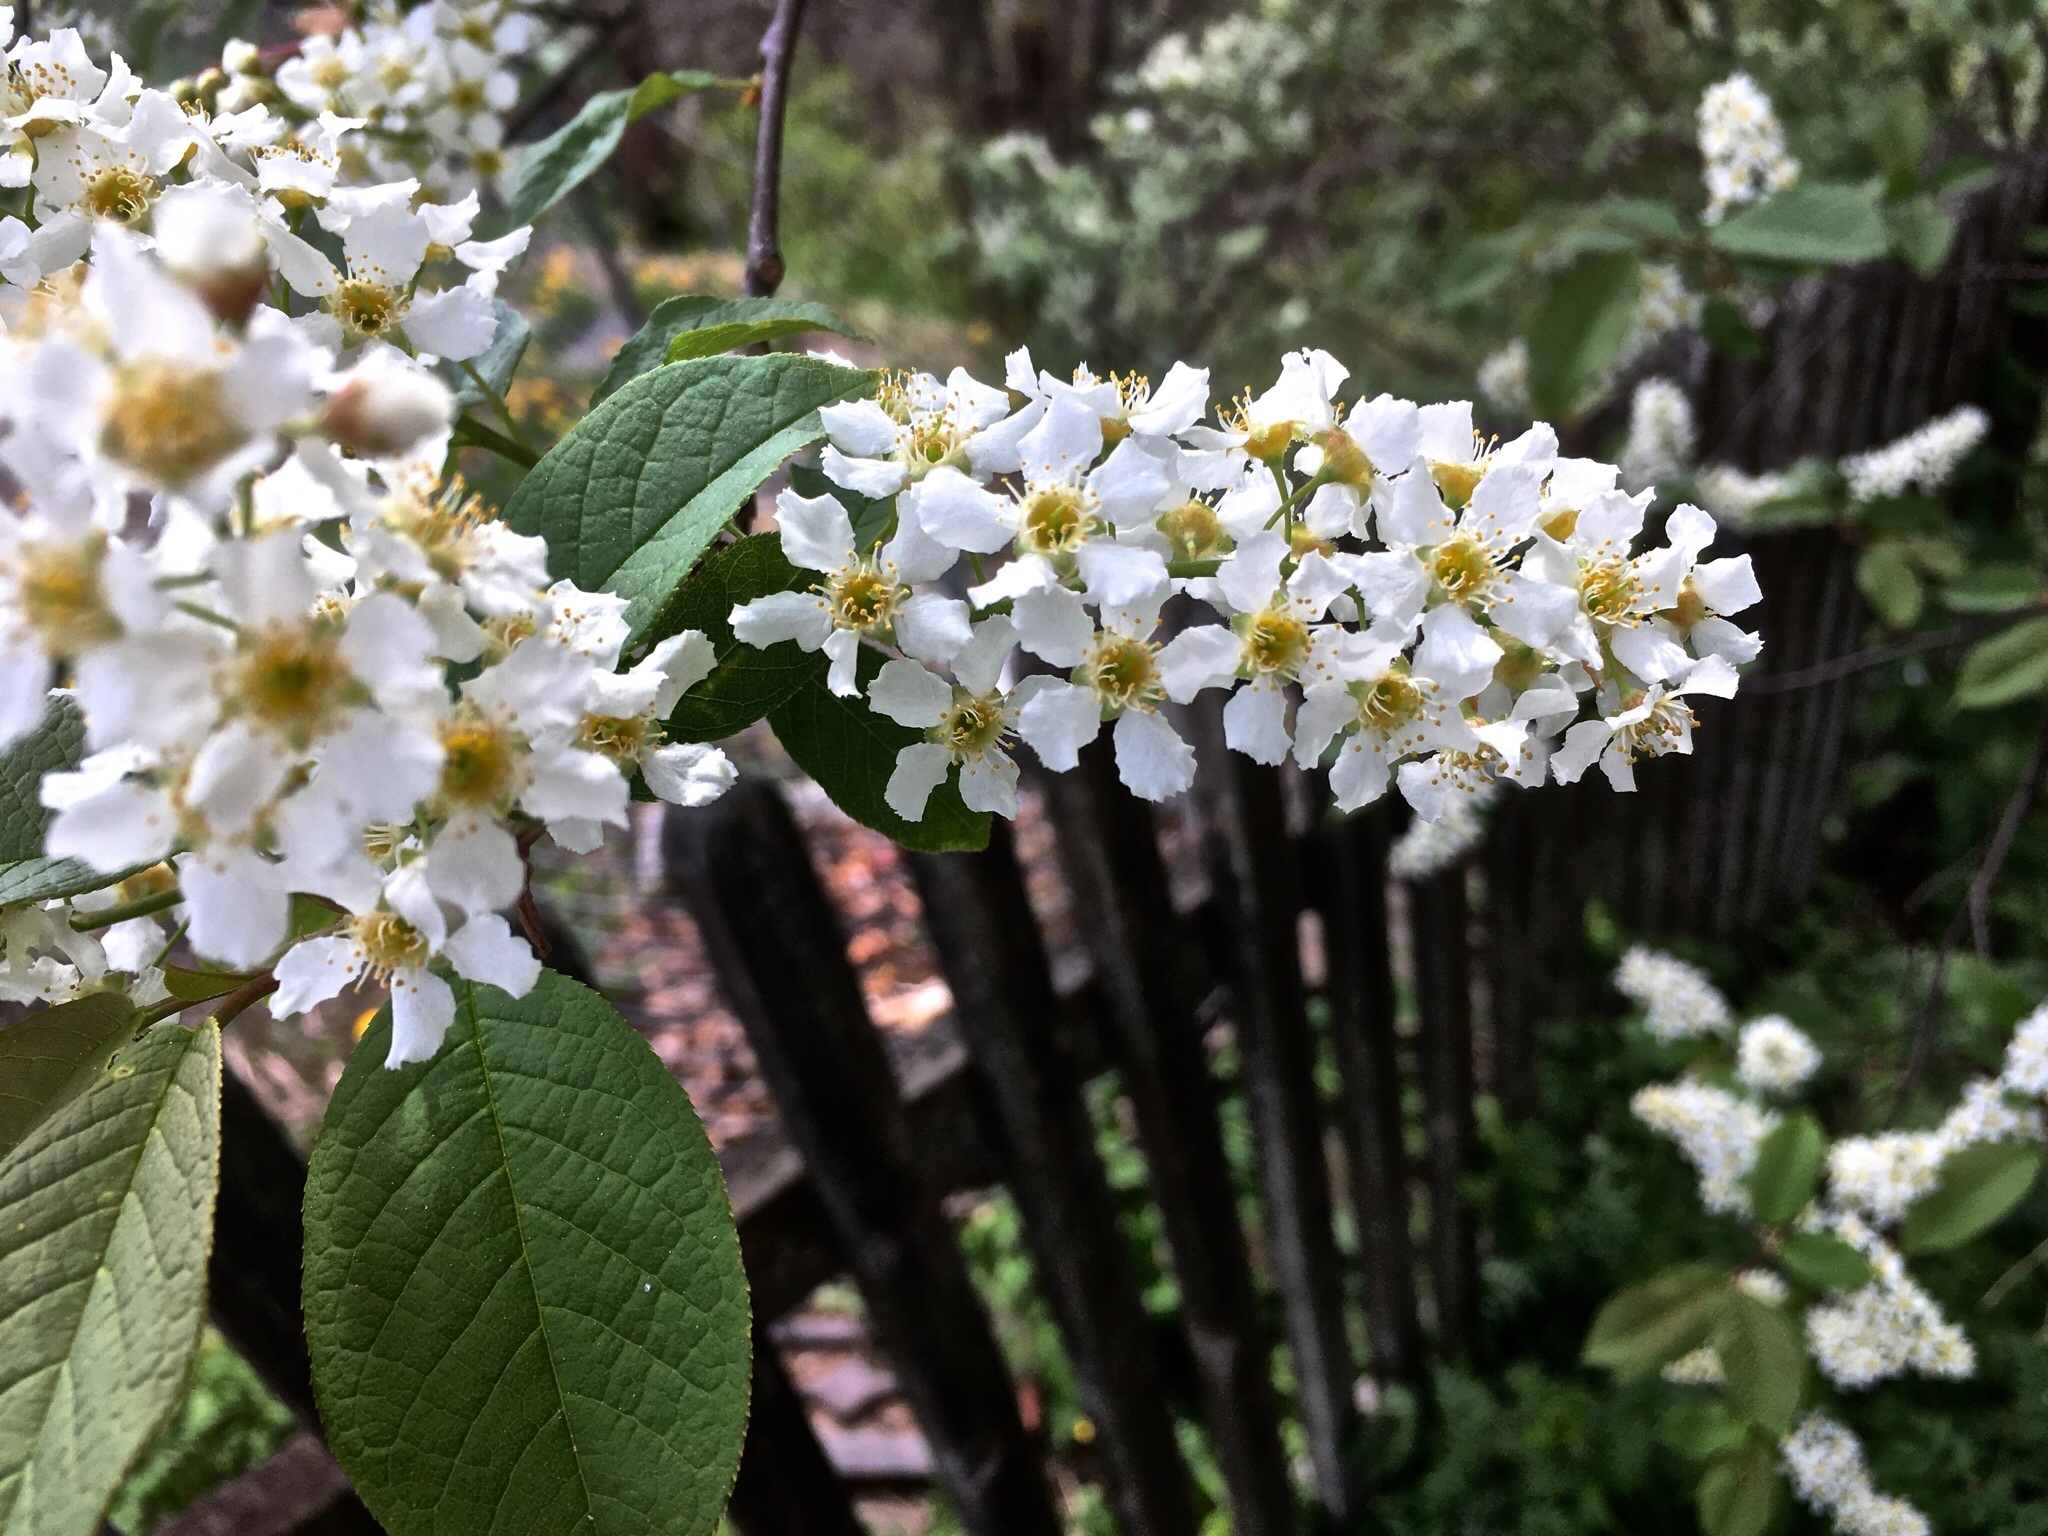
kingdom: Plantae
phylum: Tracheophyta
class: Magnoliopsida
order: Rosales
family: Rosaceae
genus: Prunus
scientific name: Prunus padus
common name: Bird cherry
